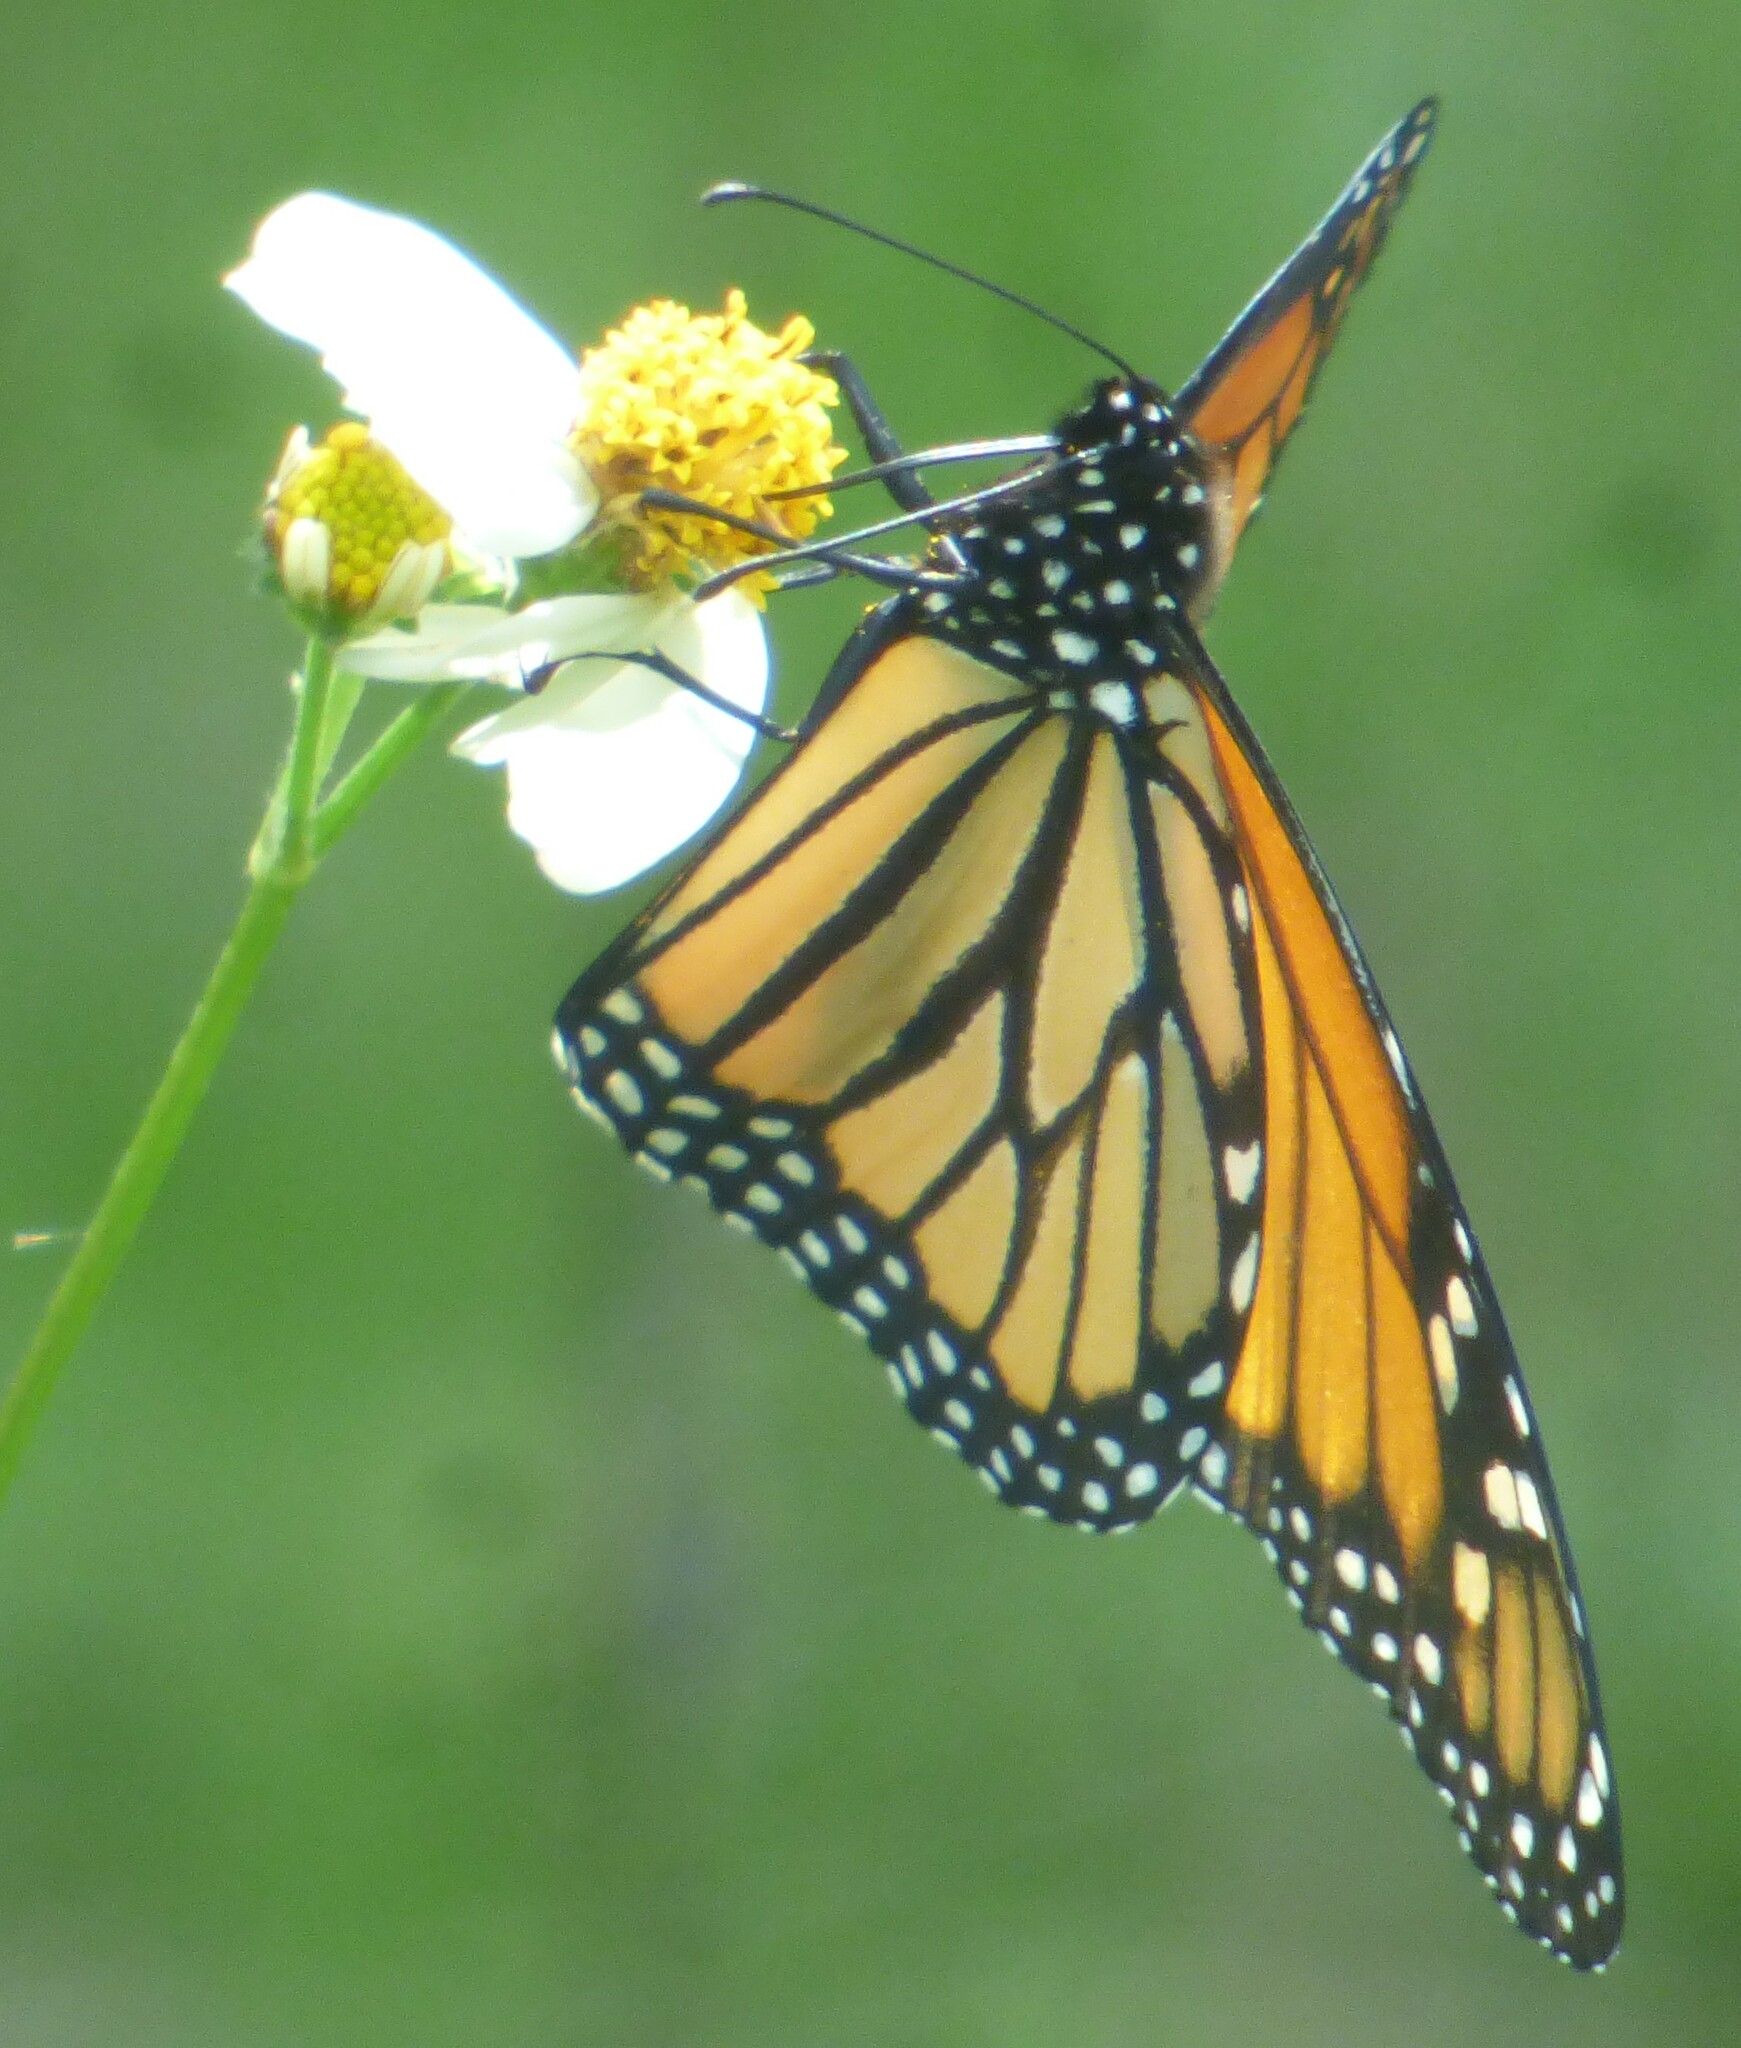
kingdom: Animalia
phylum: Arthropoda
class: Insecta
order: Lepidoptera
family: Nymphalidae
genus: Danaus
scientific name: Danaus plexippus
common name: Monarch
